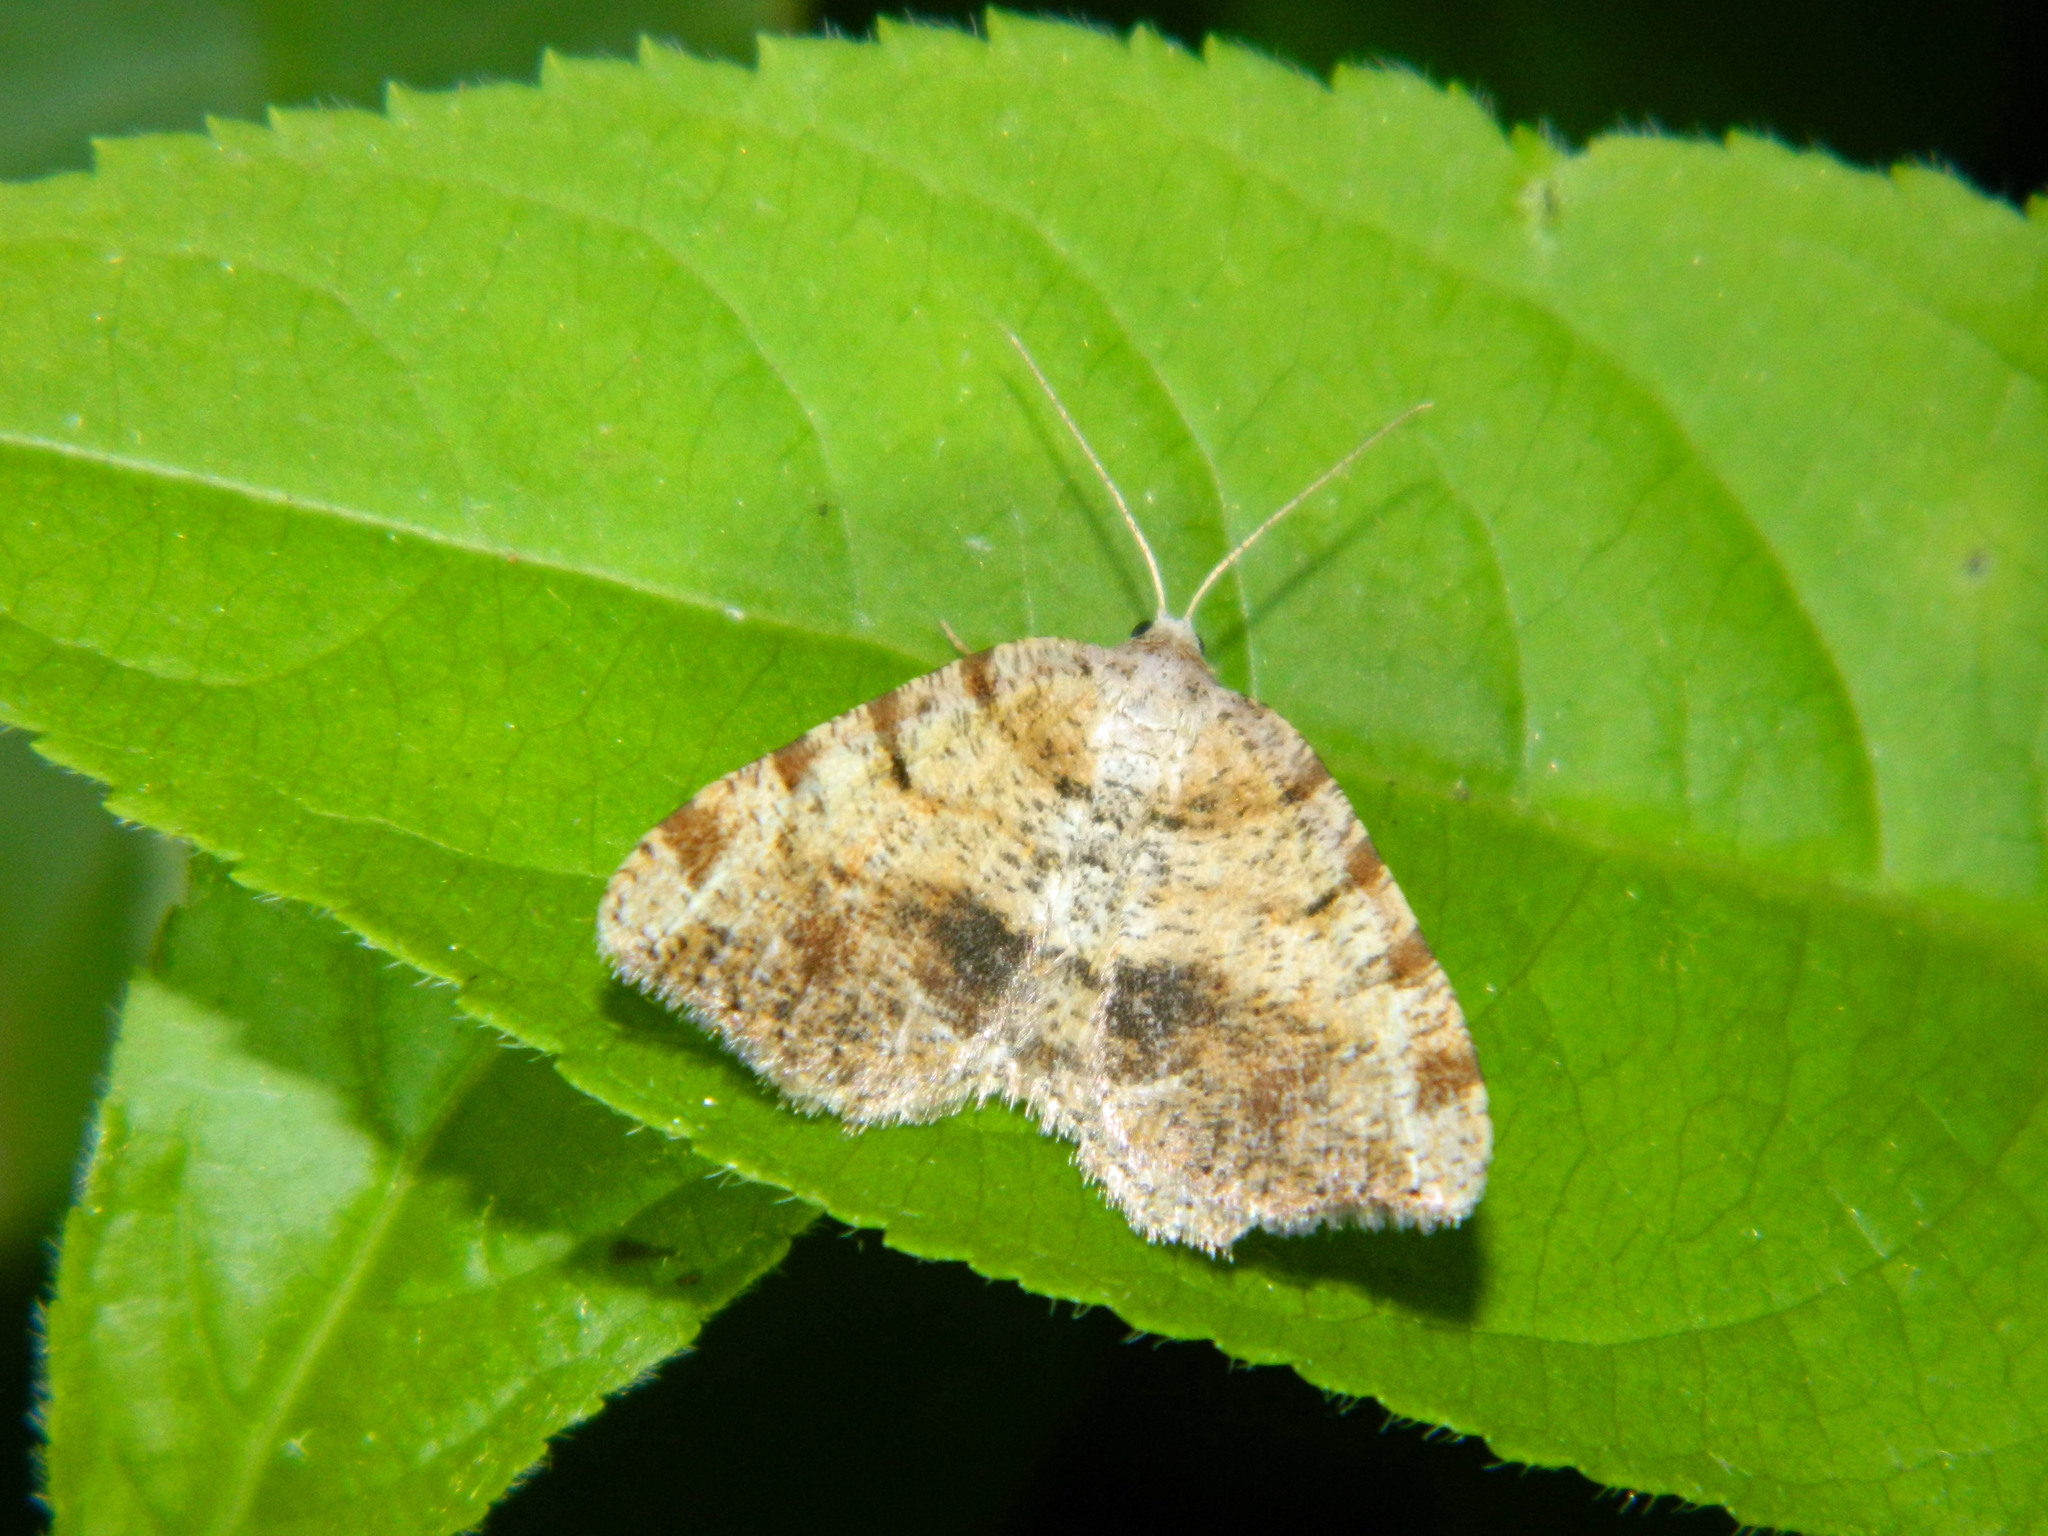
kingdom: Animalia
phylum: Arthropoda
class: Insecta
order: Lepidoptera
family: Geometridae
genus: Macaria
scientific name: Macaria exauspicata
